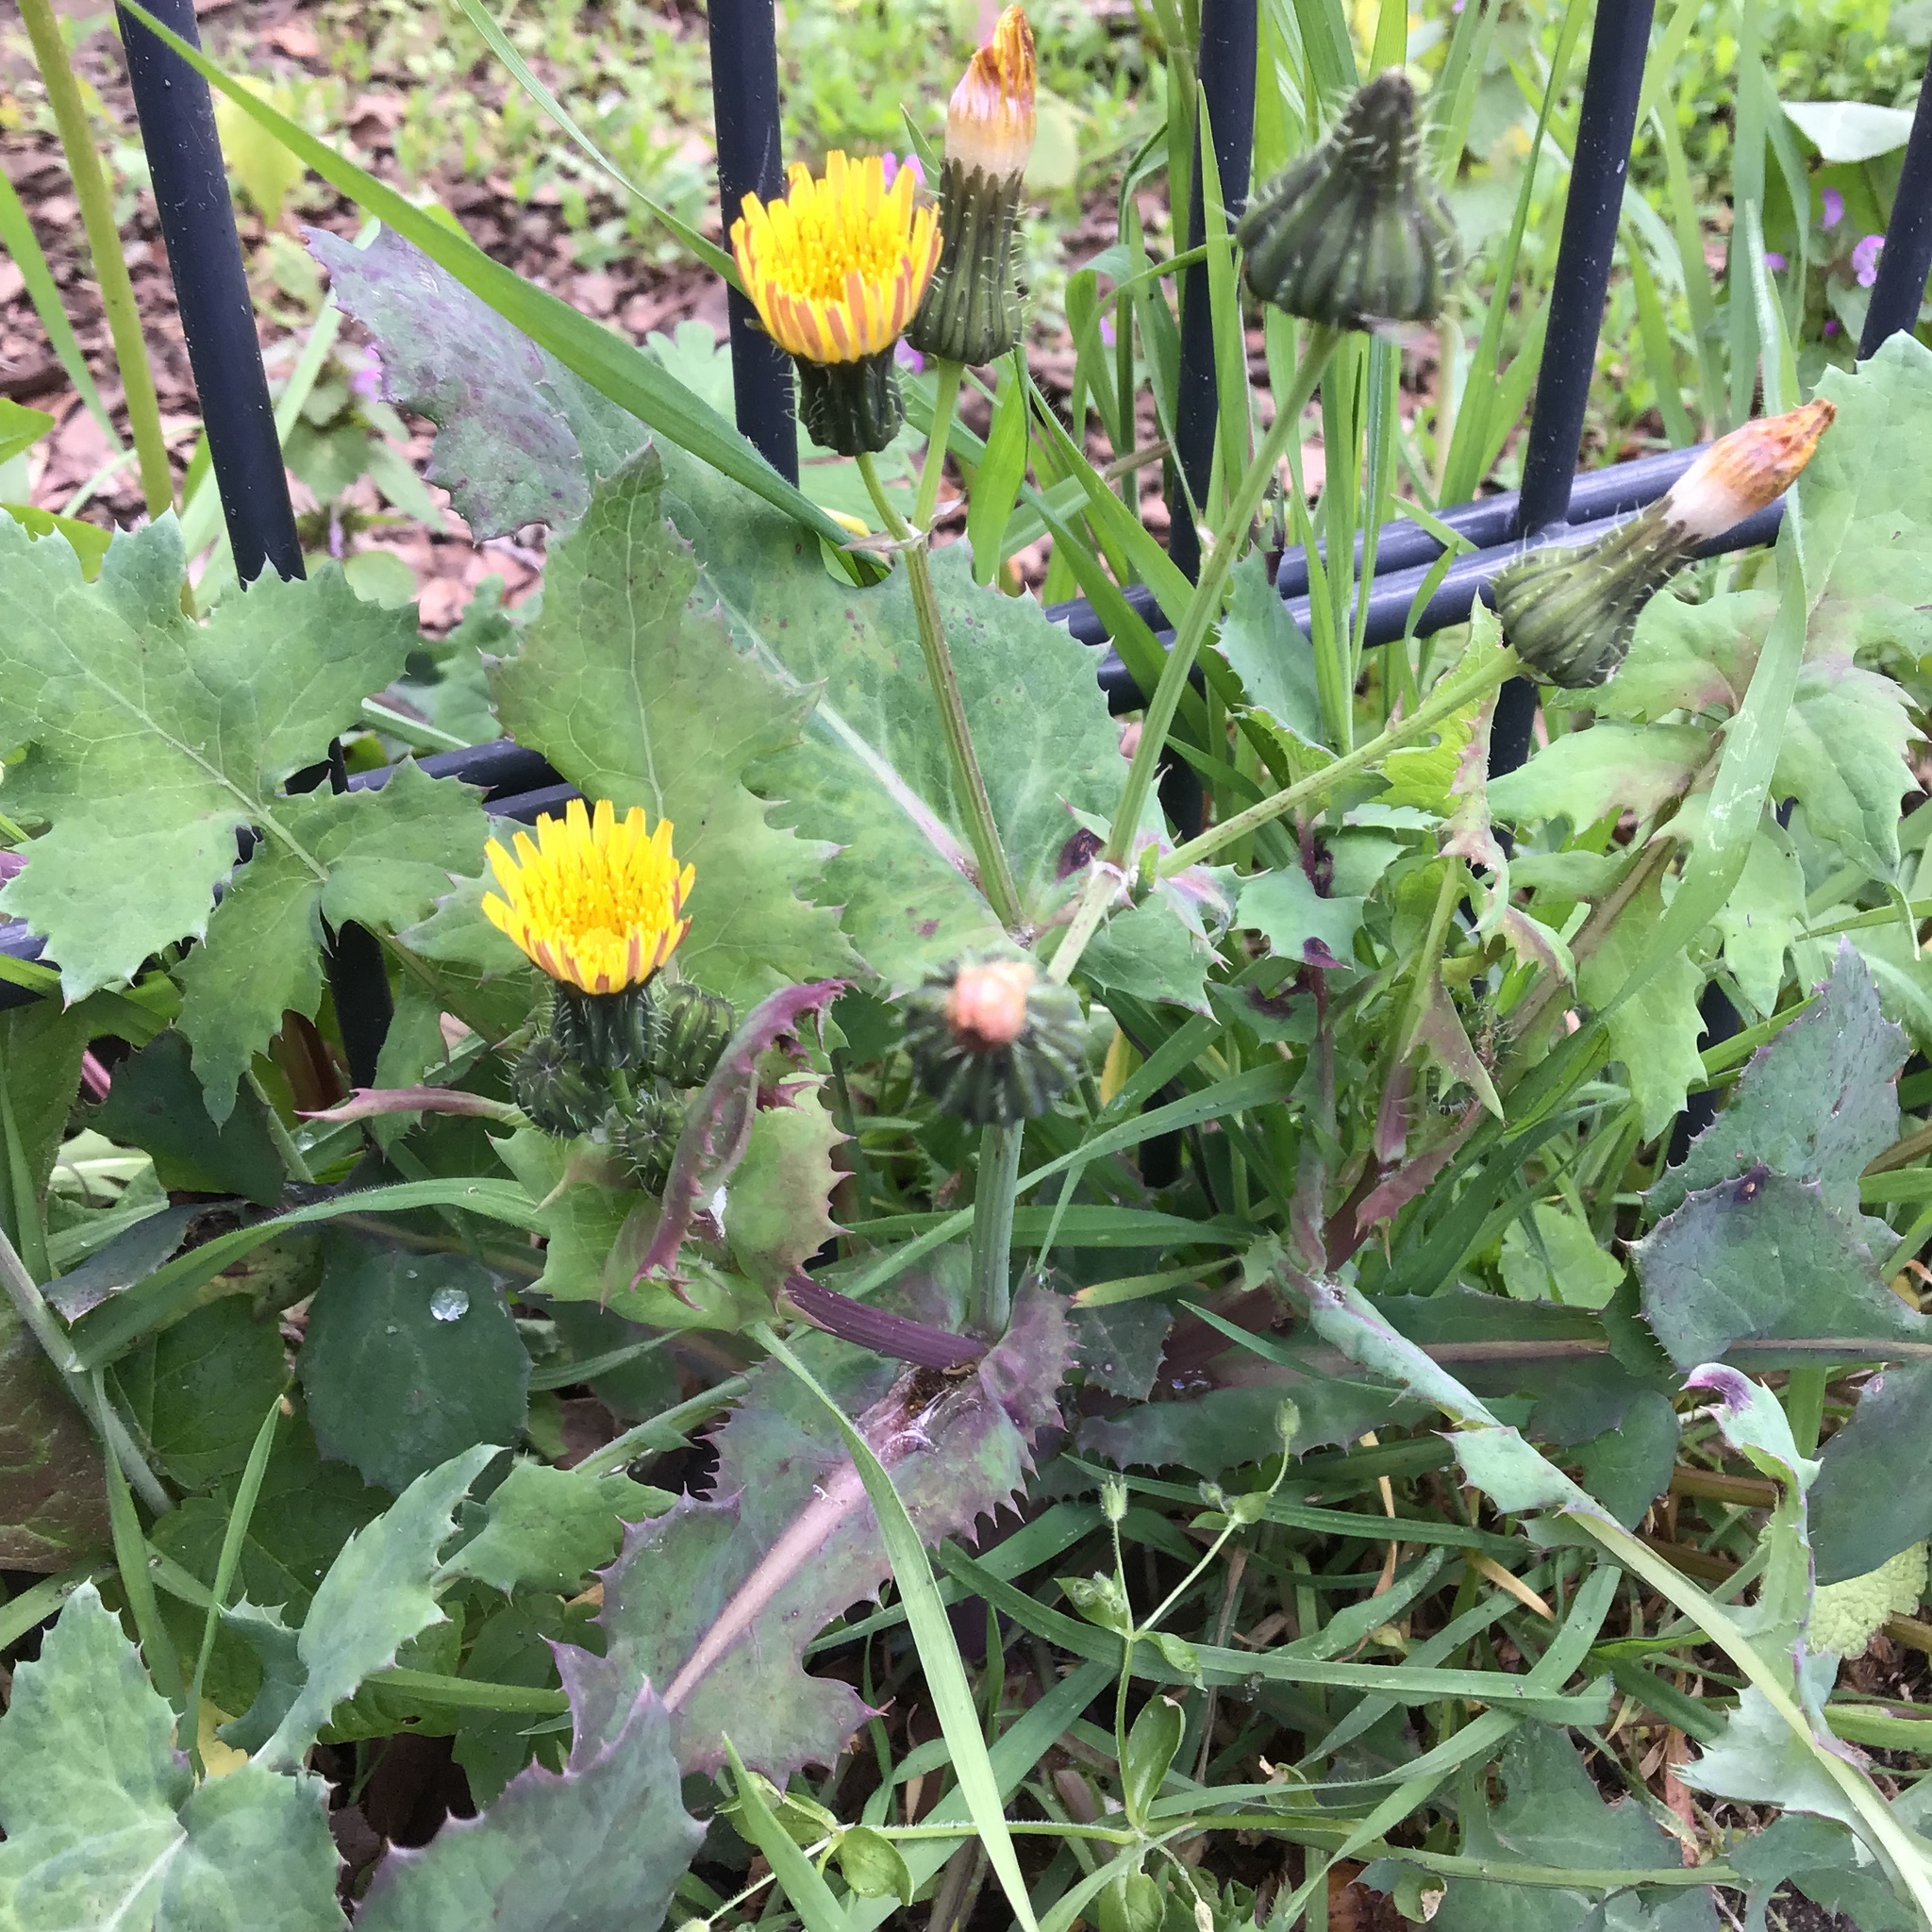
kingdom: Plantae
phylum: Tracheophyta
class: Magnoliopsida
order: Asterales
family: Asteraceae
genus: Sonchus
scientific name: Sonchus oleraceus
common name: Common sowthistle
